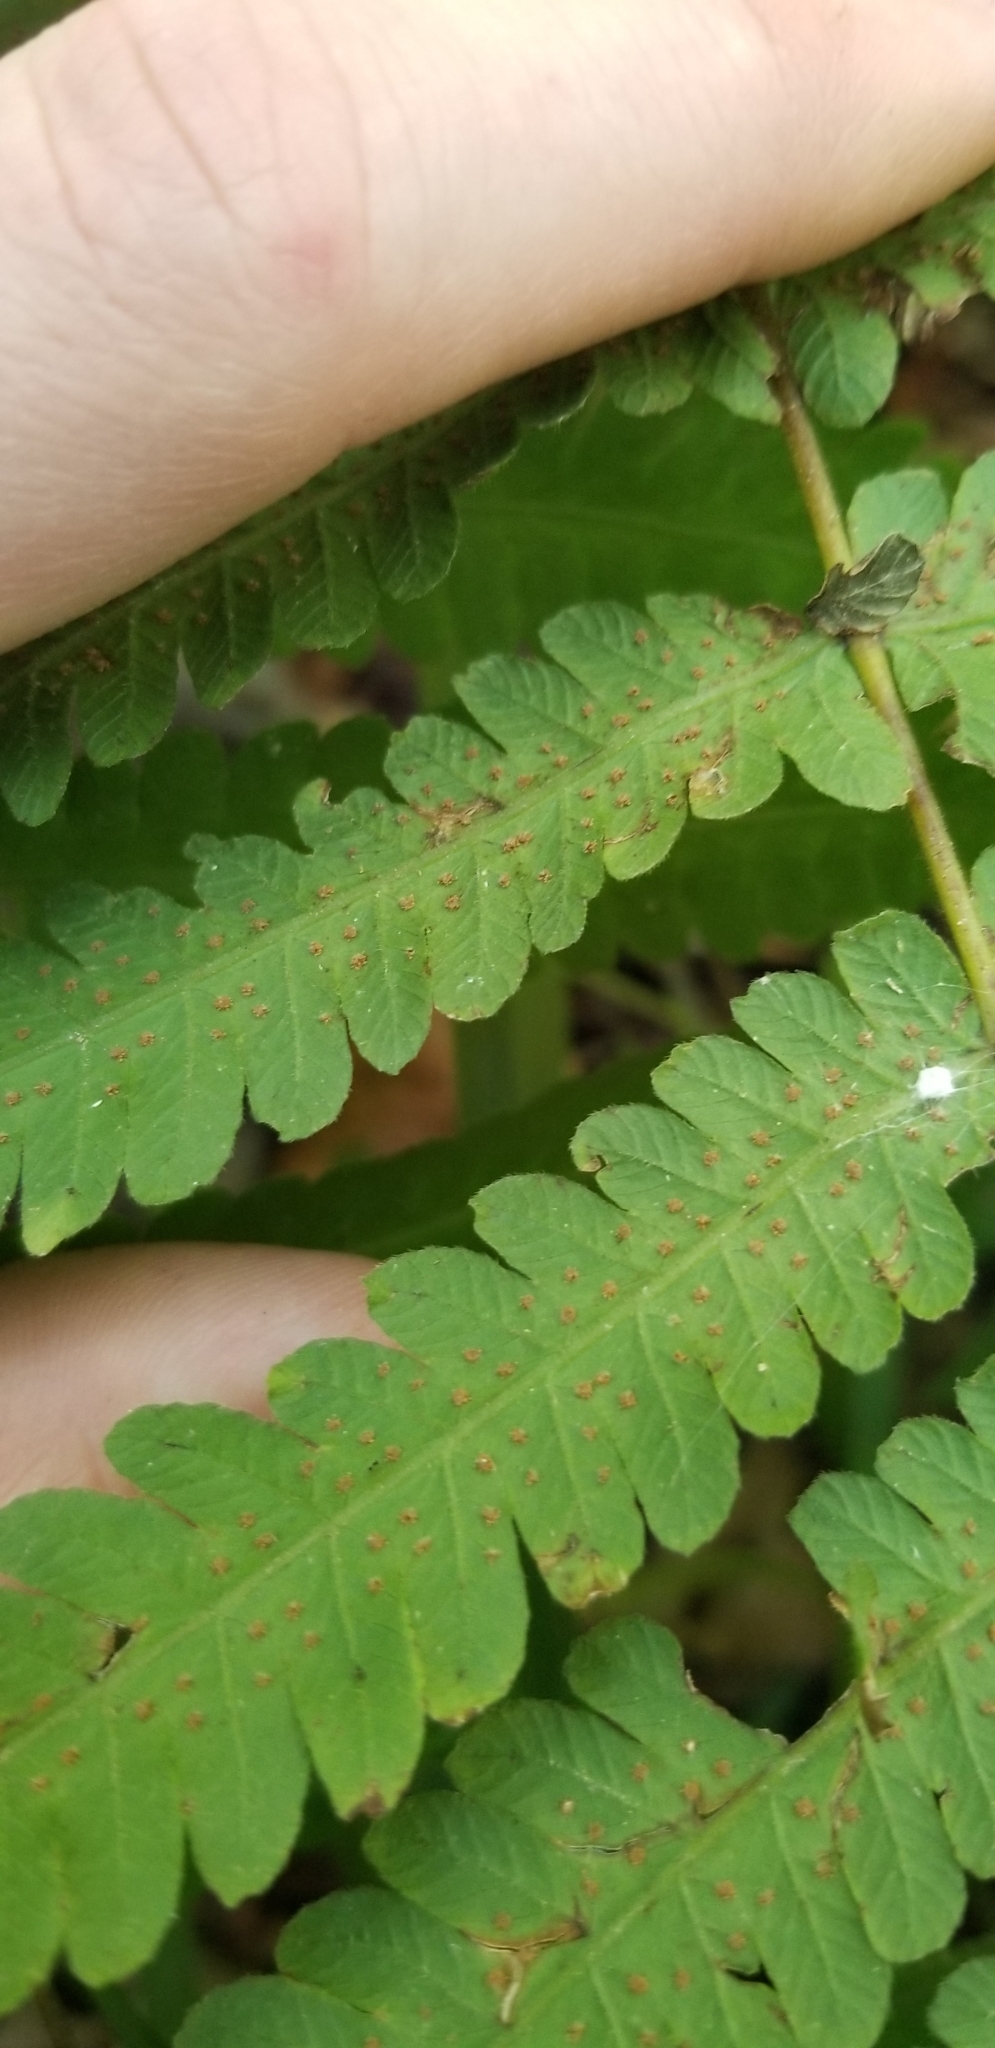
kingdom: Plantae
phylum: Tracheophyta
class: Polypodiopsida
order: Polypodiales
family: Thelypteridaceae
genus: Christella
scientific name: Christella dentata
